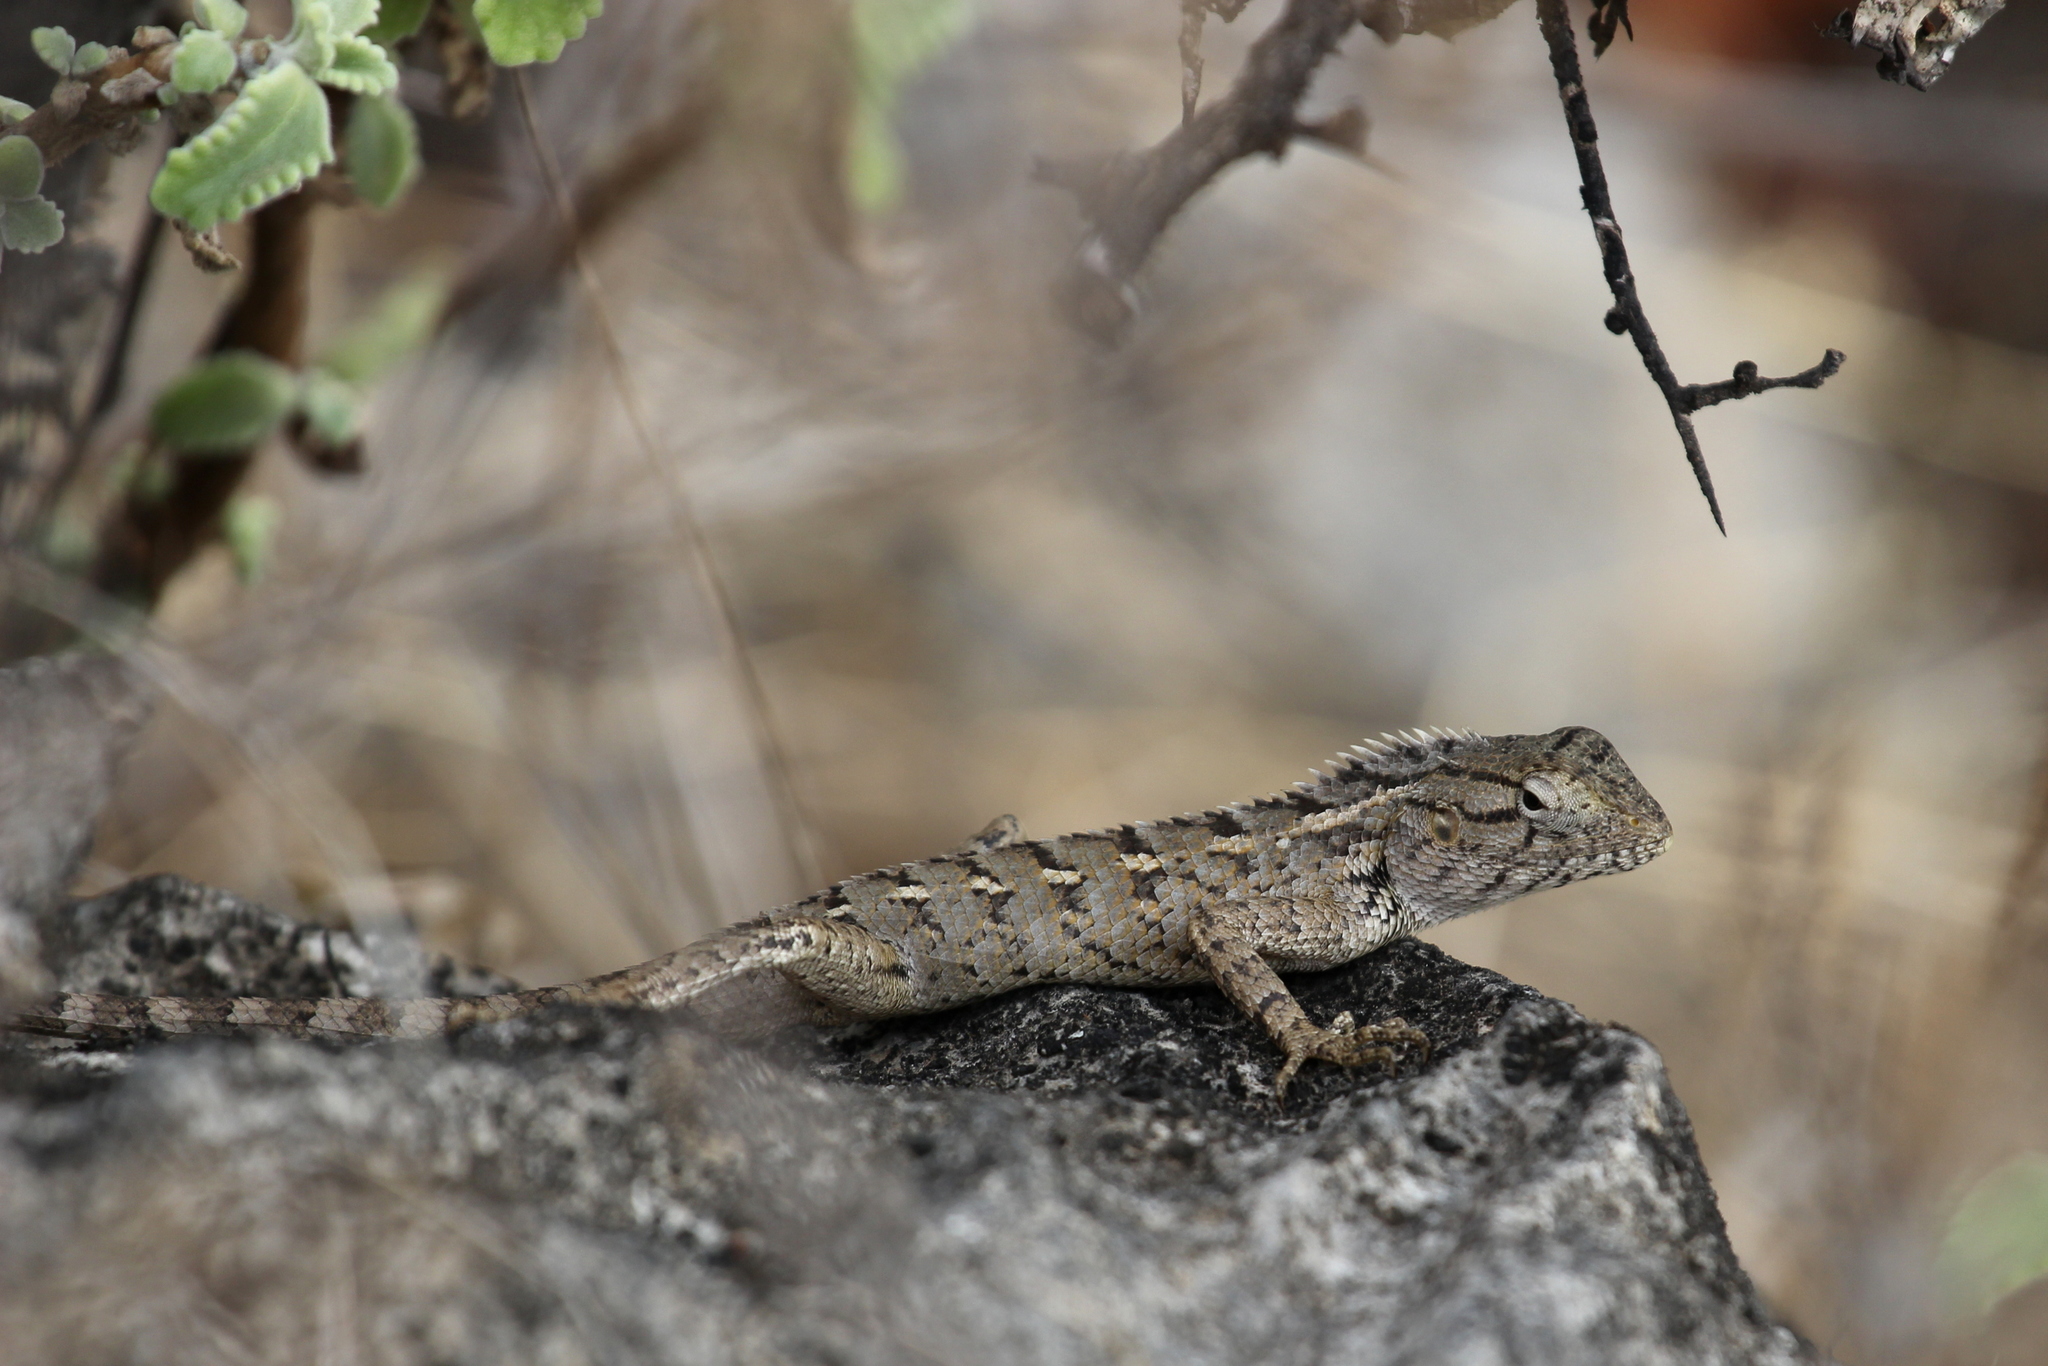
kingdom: Animalia
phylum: Chordata
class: Squamata
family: Agamidae
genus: Calotes
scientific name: Calotes versicolor
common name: Oriental garden lizard
